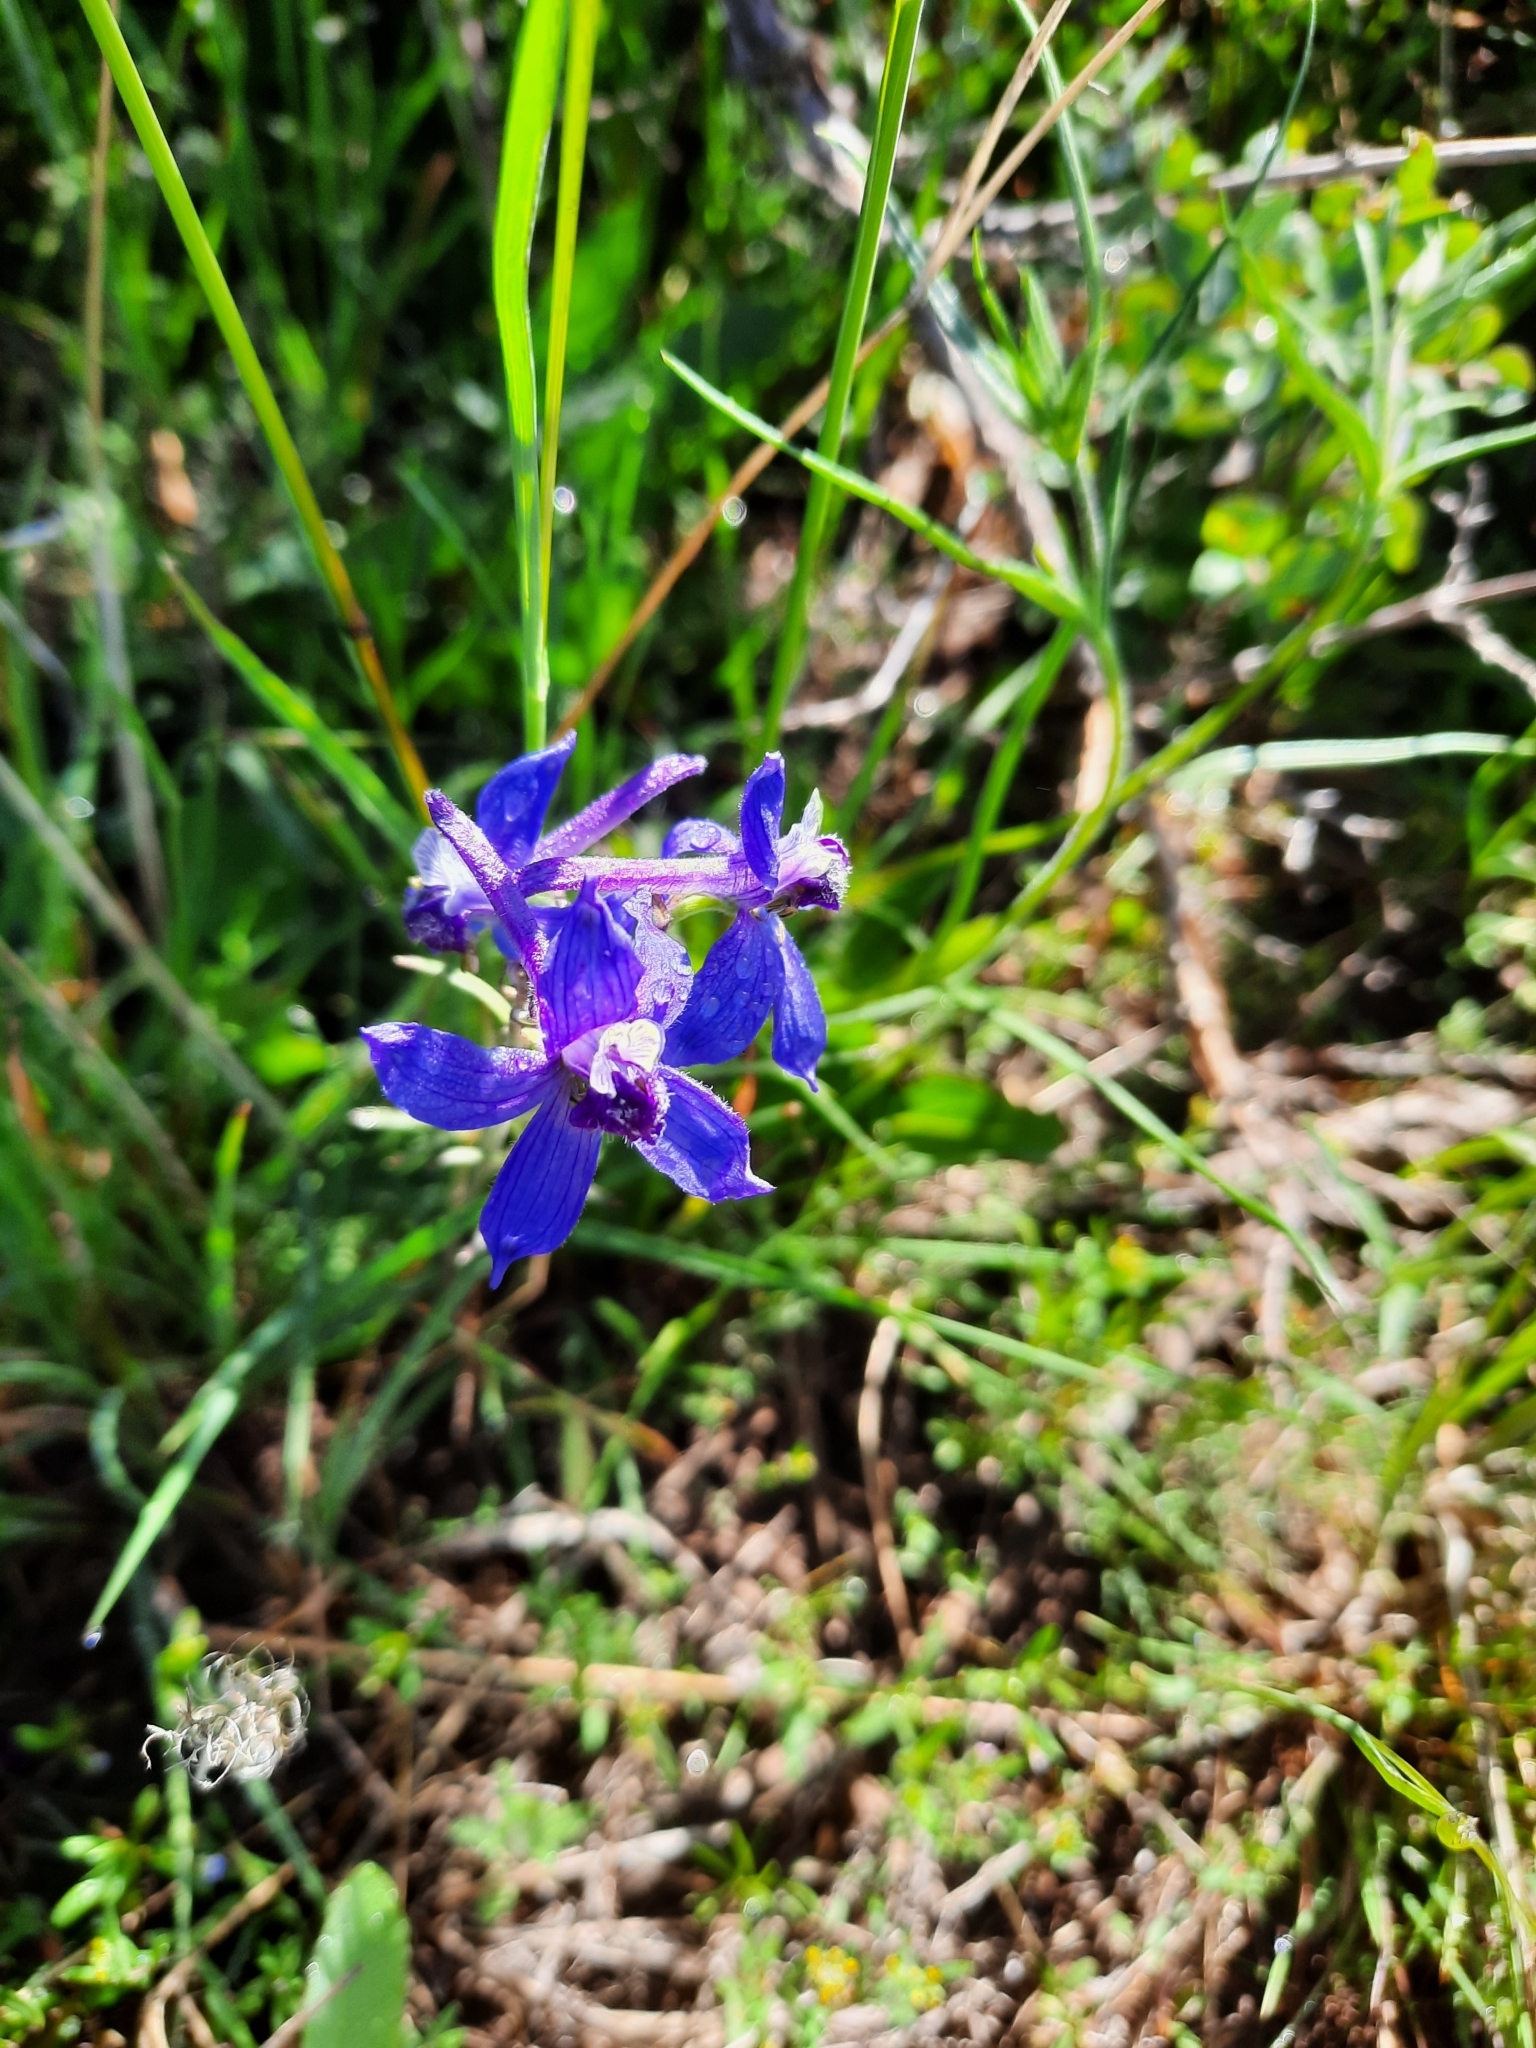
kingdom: Plantae
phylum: Tracheophyta
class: Magnoliopsida
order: Ranunculales
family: Ranunculaceae
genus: Delphinium
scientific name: Delphinium nuttallianum
